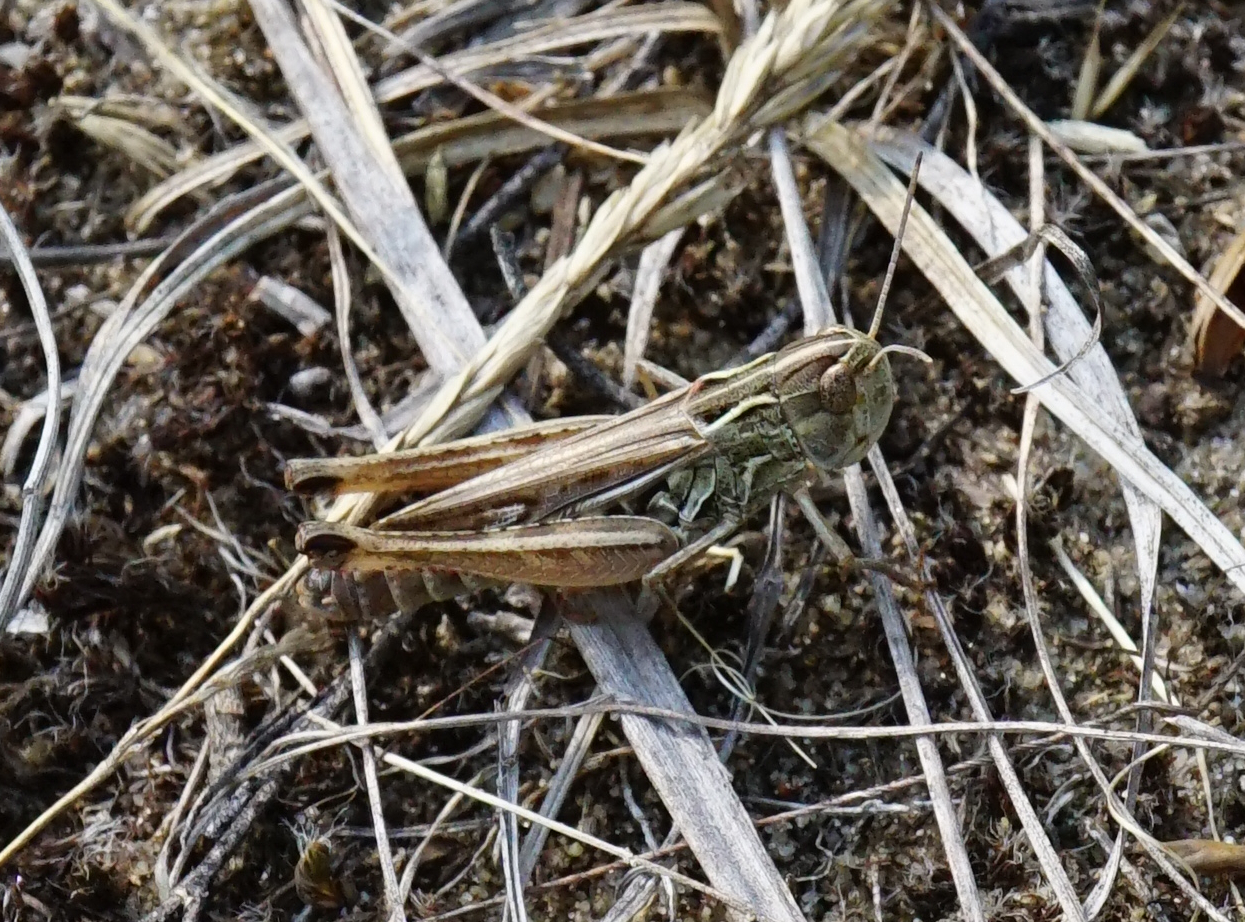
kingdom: Animalia
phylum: Arthropoda
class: Insecta
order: Orthoptera
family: Acrididae
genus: Stenobothrus
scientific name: Stenobothrus fischeri
